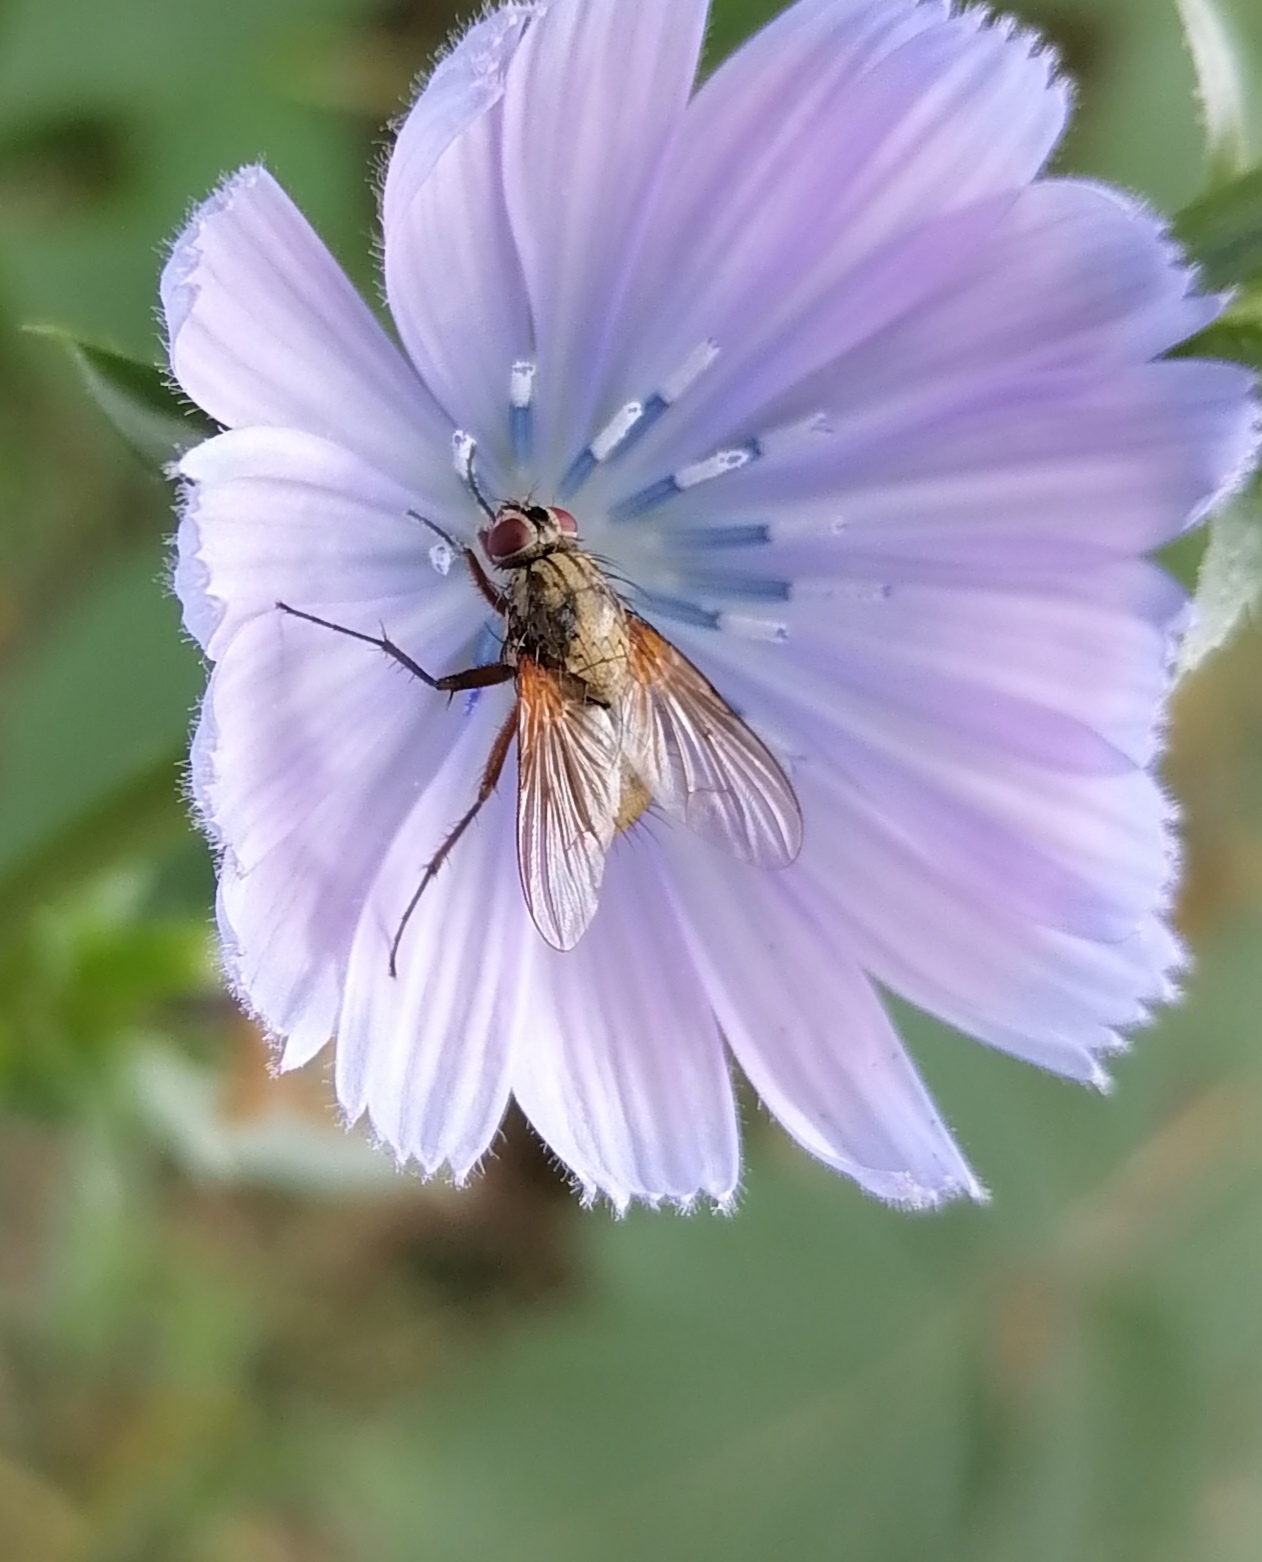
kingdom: Animalia
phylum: Arthropoda
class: Insecta
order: Diptera
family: Muscidae
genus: Phaonia
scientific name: Phaonia angelicae
